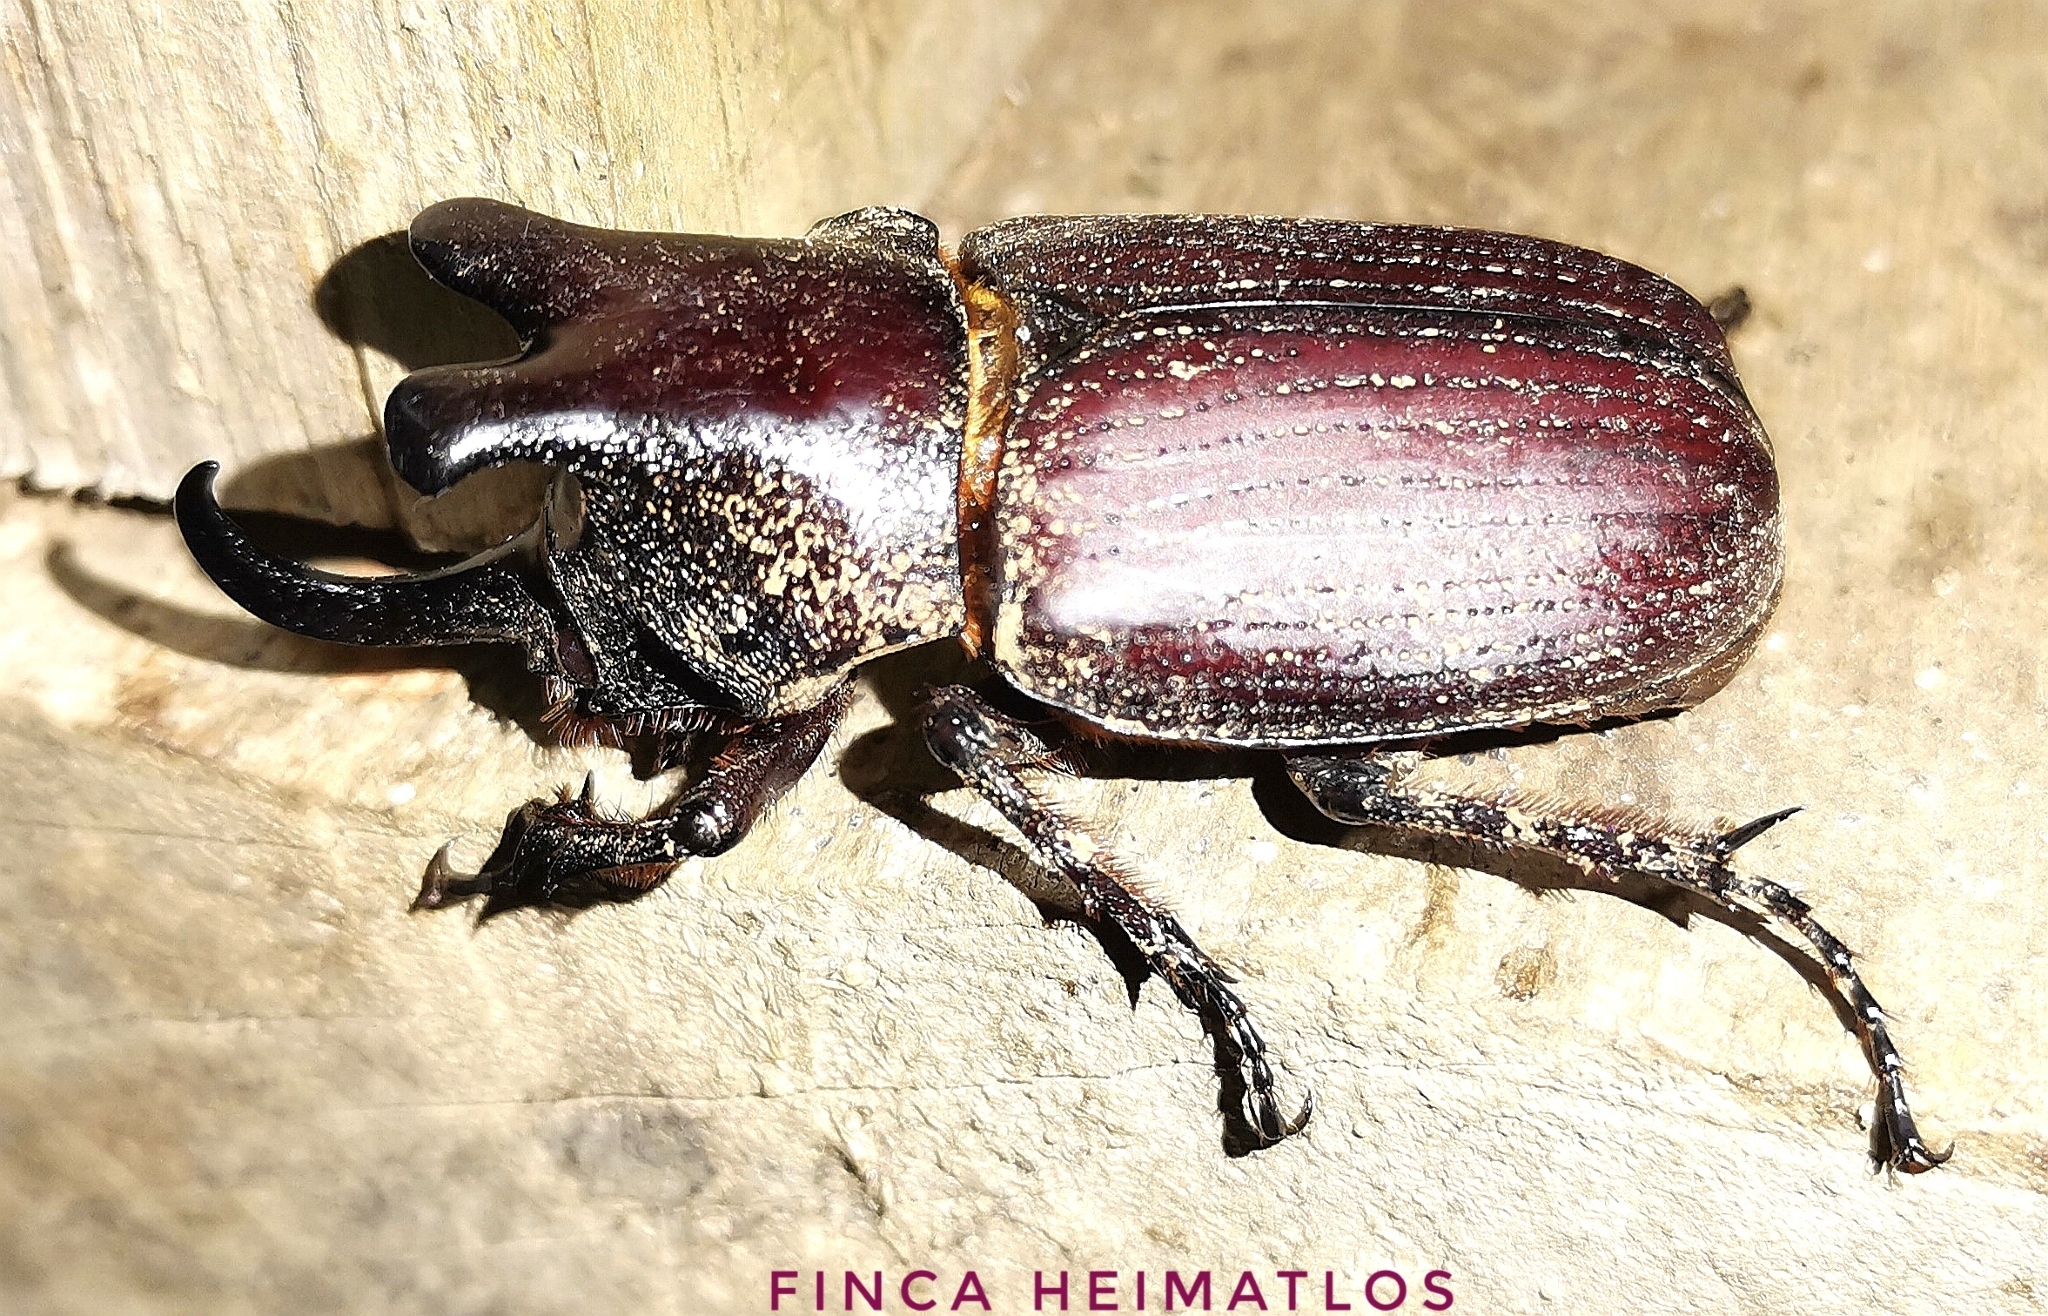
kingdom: Animalia
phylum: Arthropoda
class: Insecta
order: Coleoptera
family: Scarabaeidae
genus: Coelosis
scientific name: Coelosis biloba
